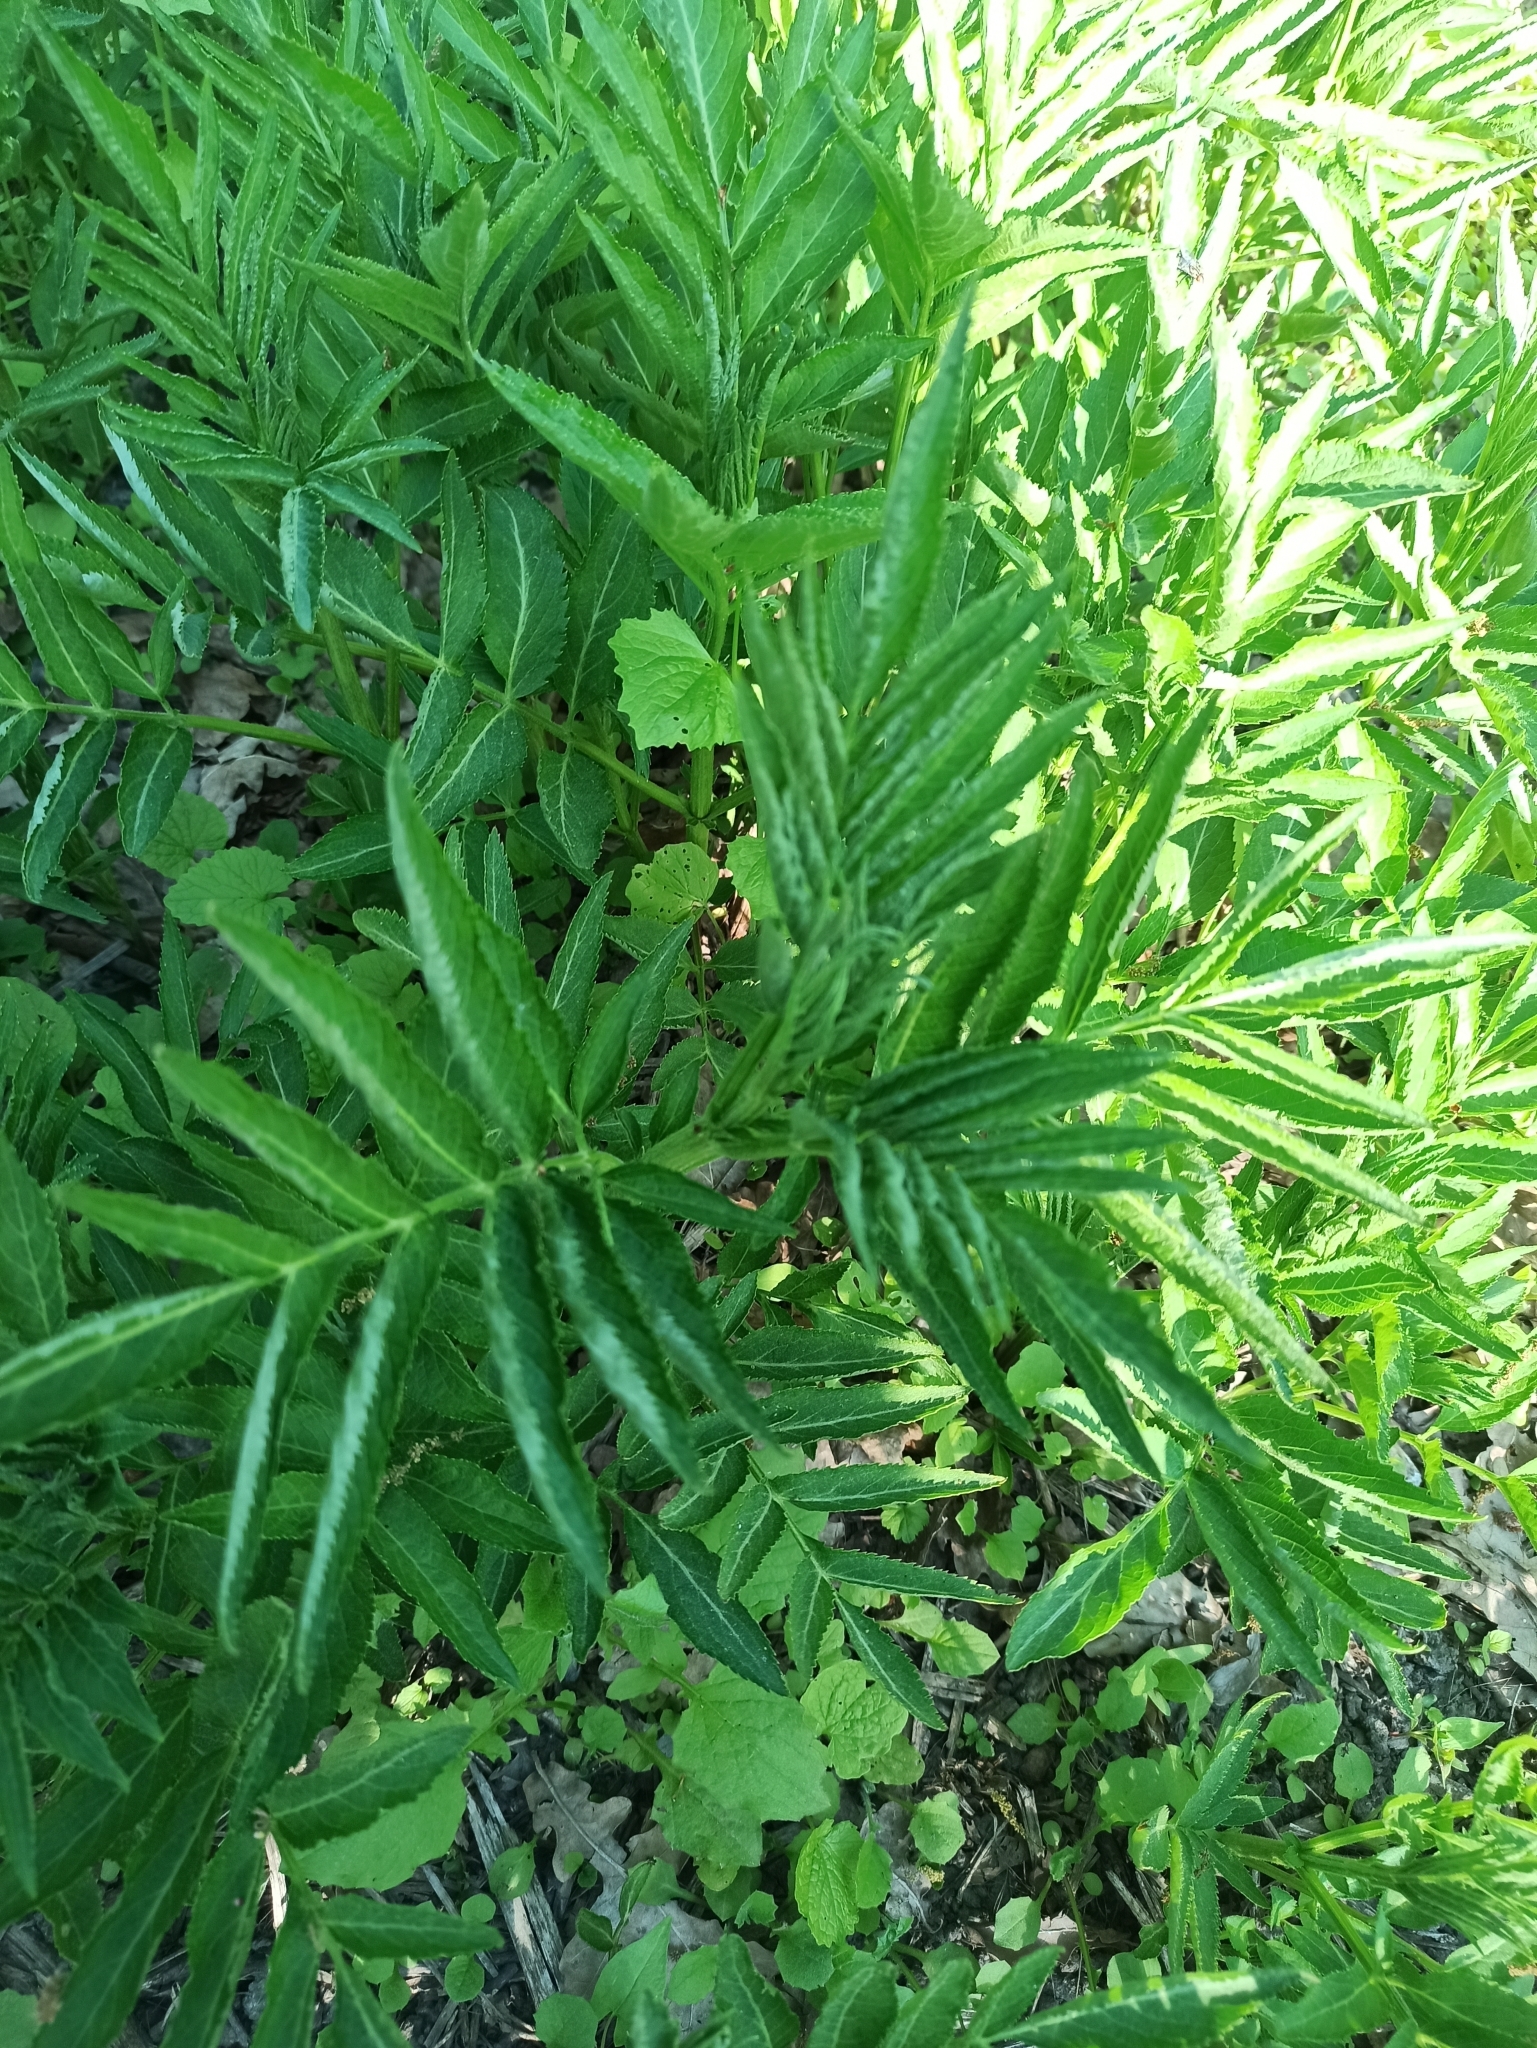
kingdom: Plantae
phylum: Tracheophyta
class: Magnoliopsida
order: Apiales
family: Apiaceae
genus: Angelica
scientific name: Angelica sylvestris
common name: Wild angelica
